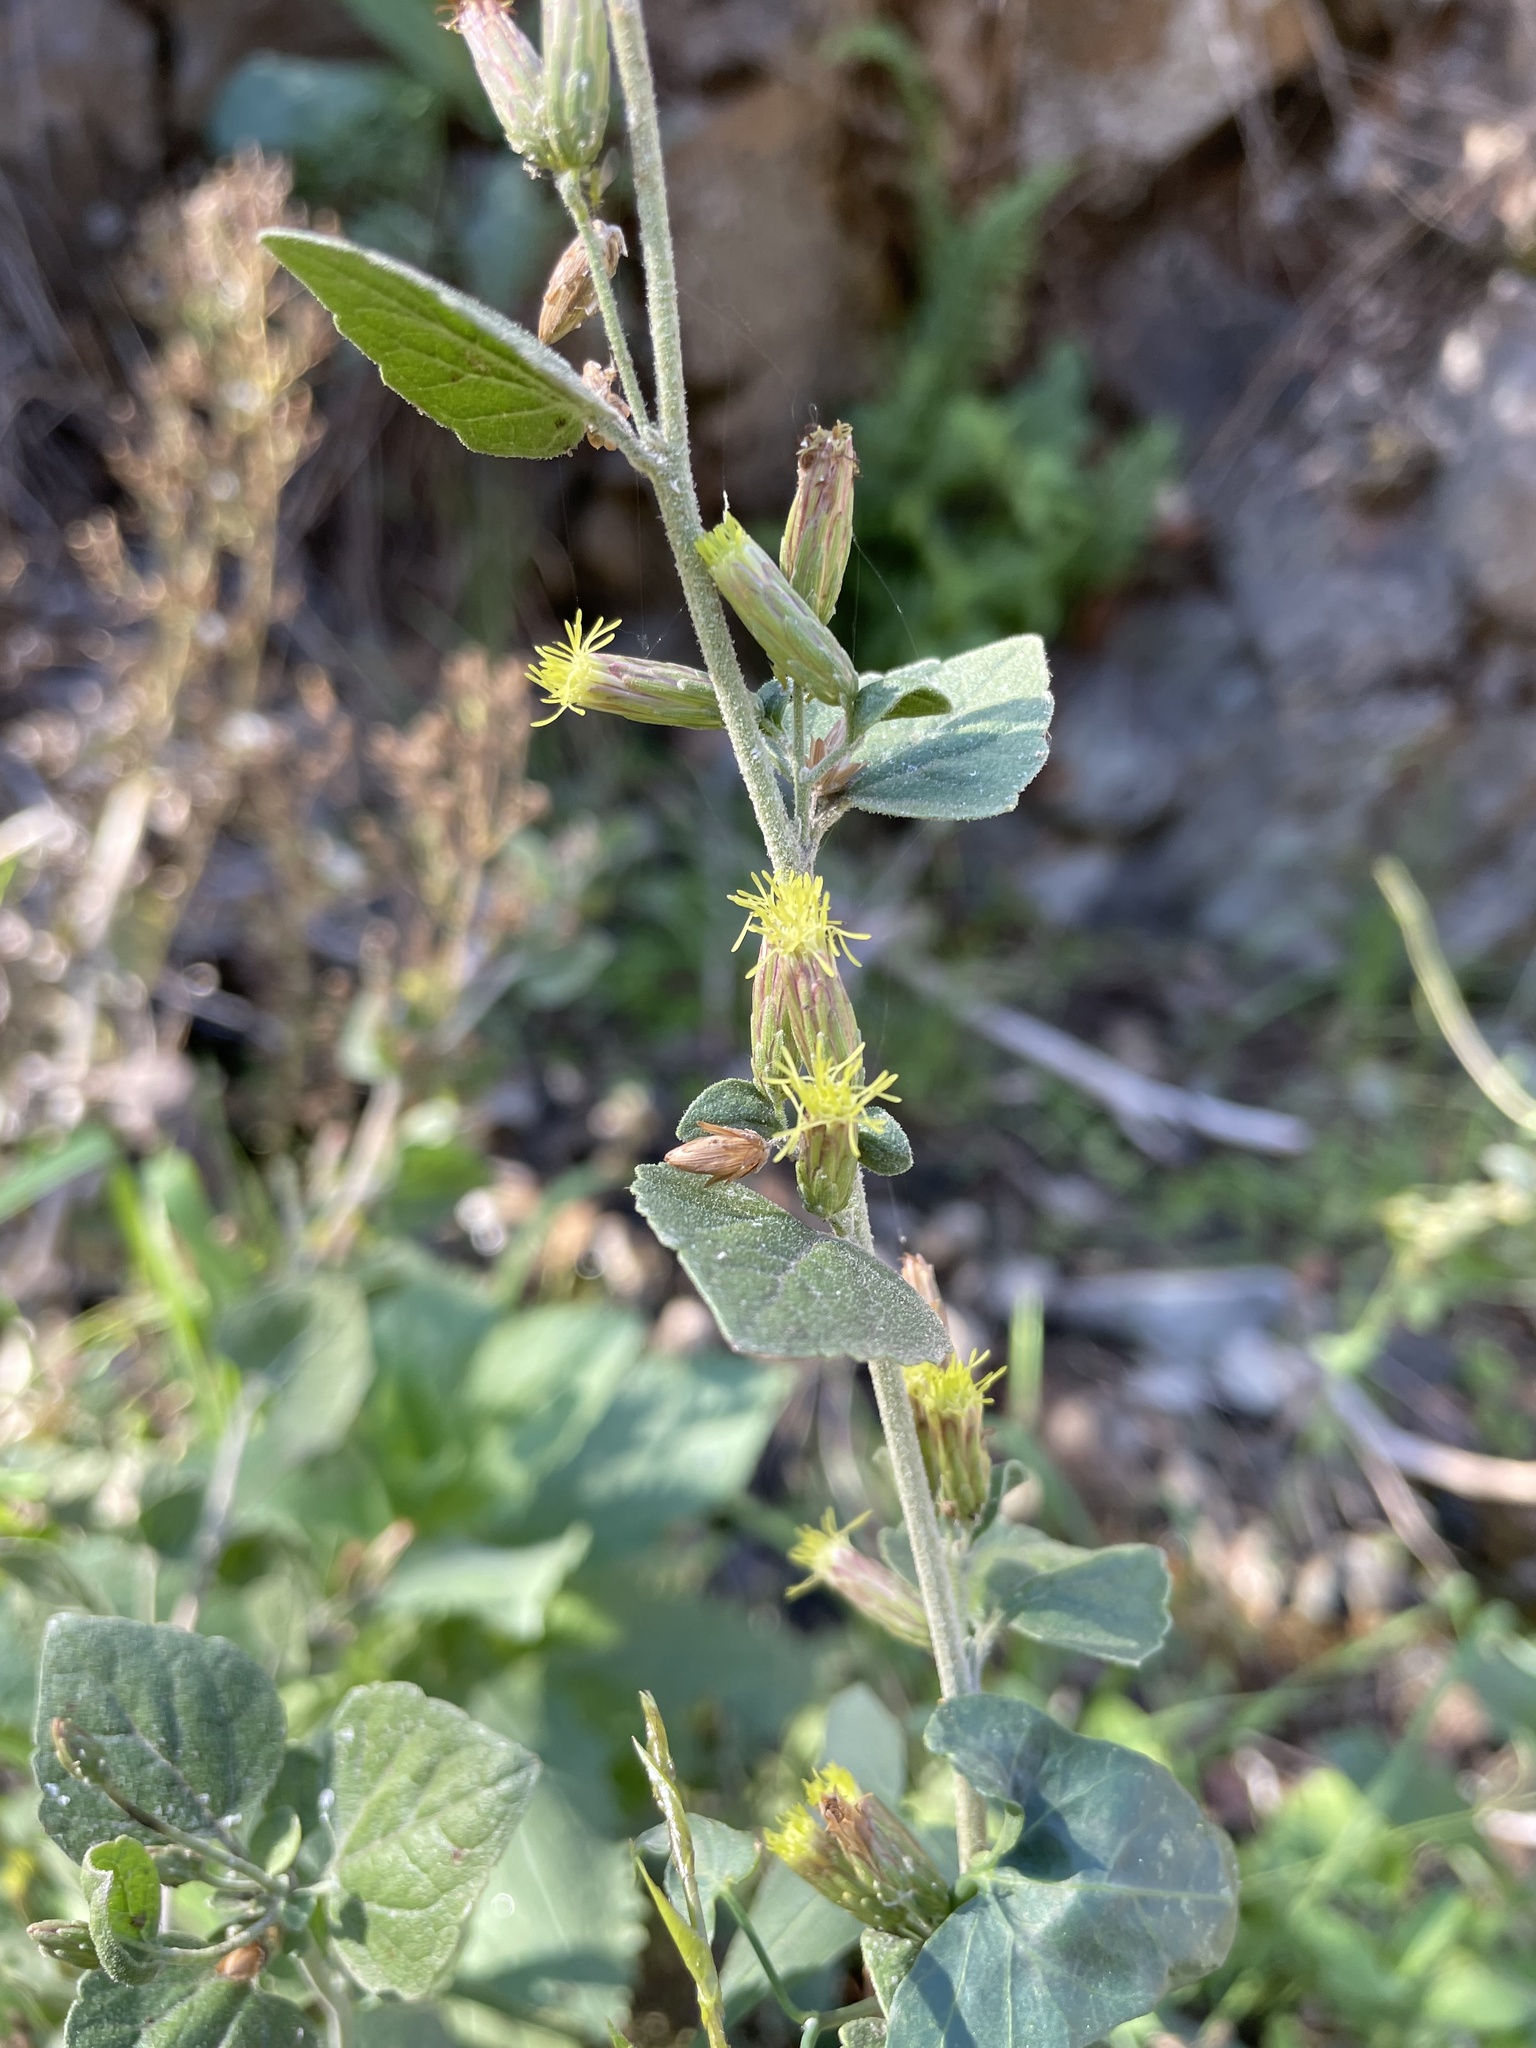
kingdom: Plantae
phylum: Tracheophyta
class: Magnoliopsida
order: Asterales
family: Asteraceae
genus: Brickellia
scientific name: Brickellia californica
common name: California brickellbush
